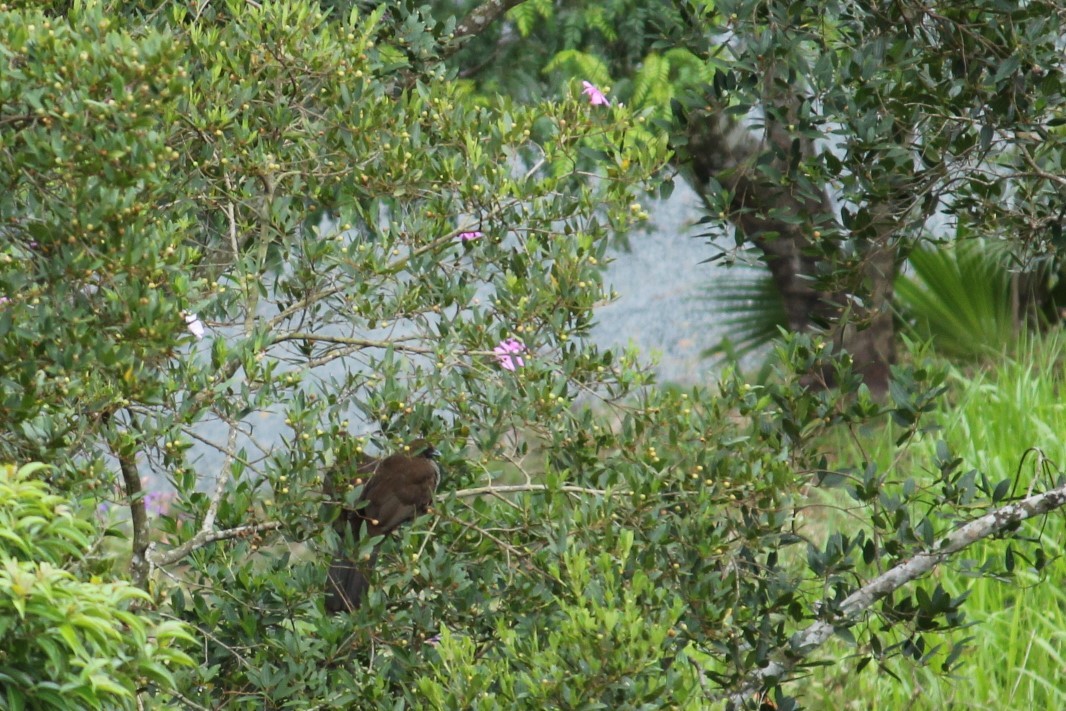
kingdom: Animalia
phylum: Chordata
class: Aves
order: Galliformes
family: Cracidae
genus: Ortalis
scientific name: Ortalis squamata
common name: Scaled chachalaca
